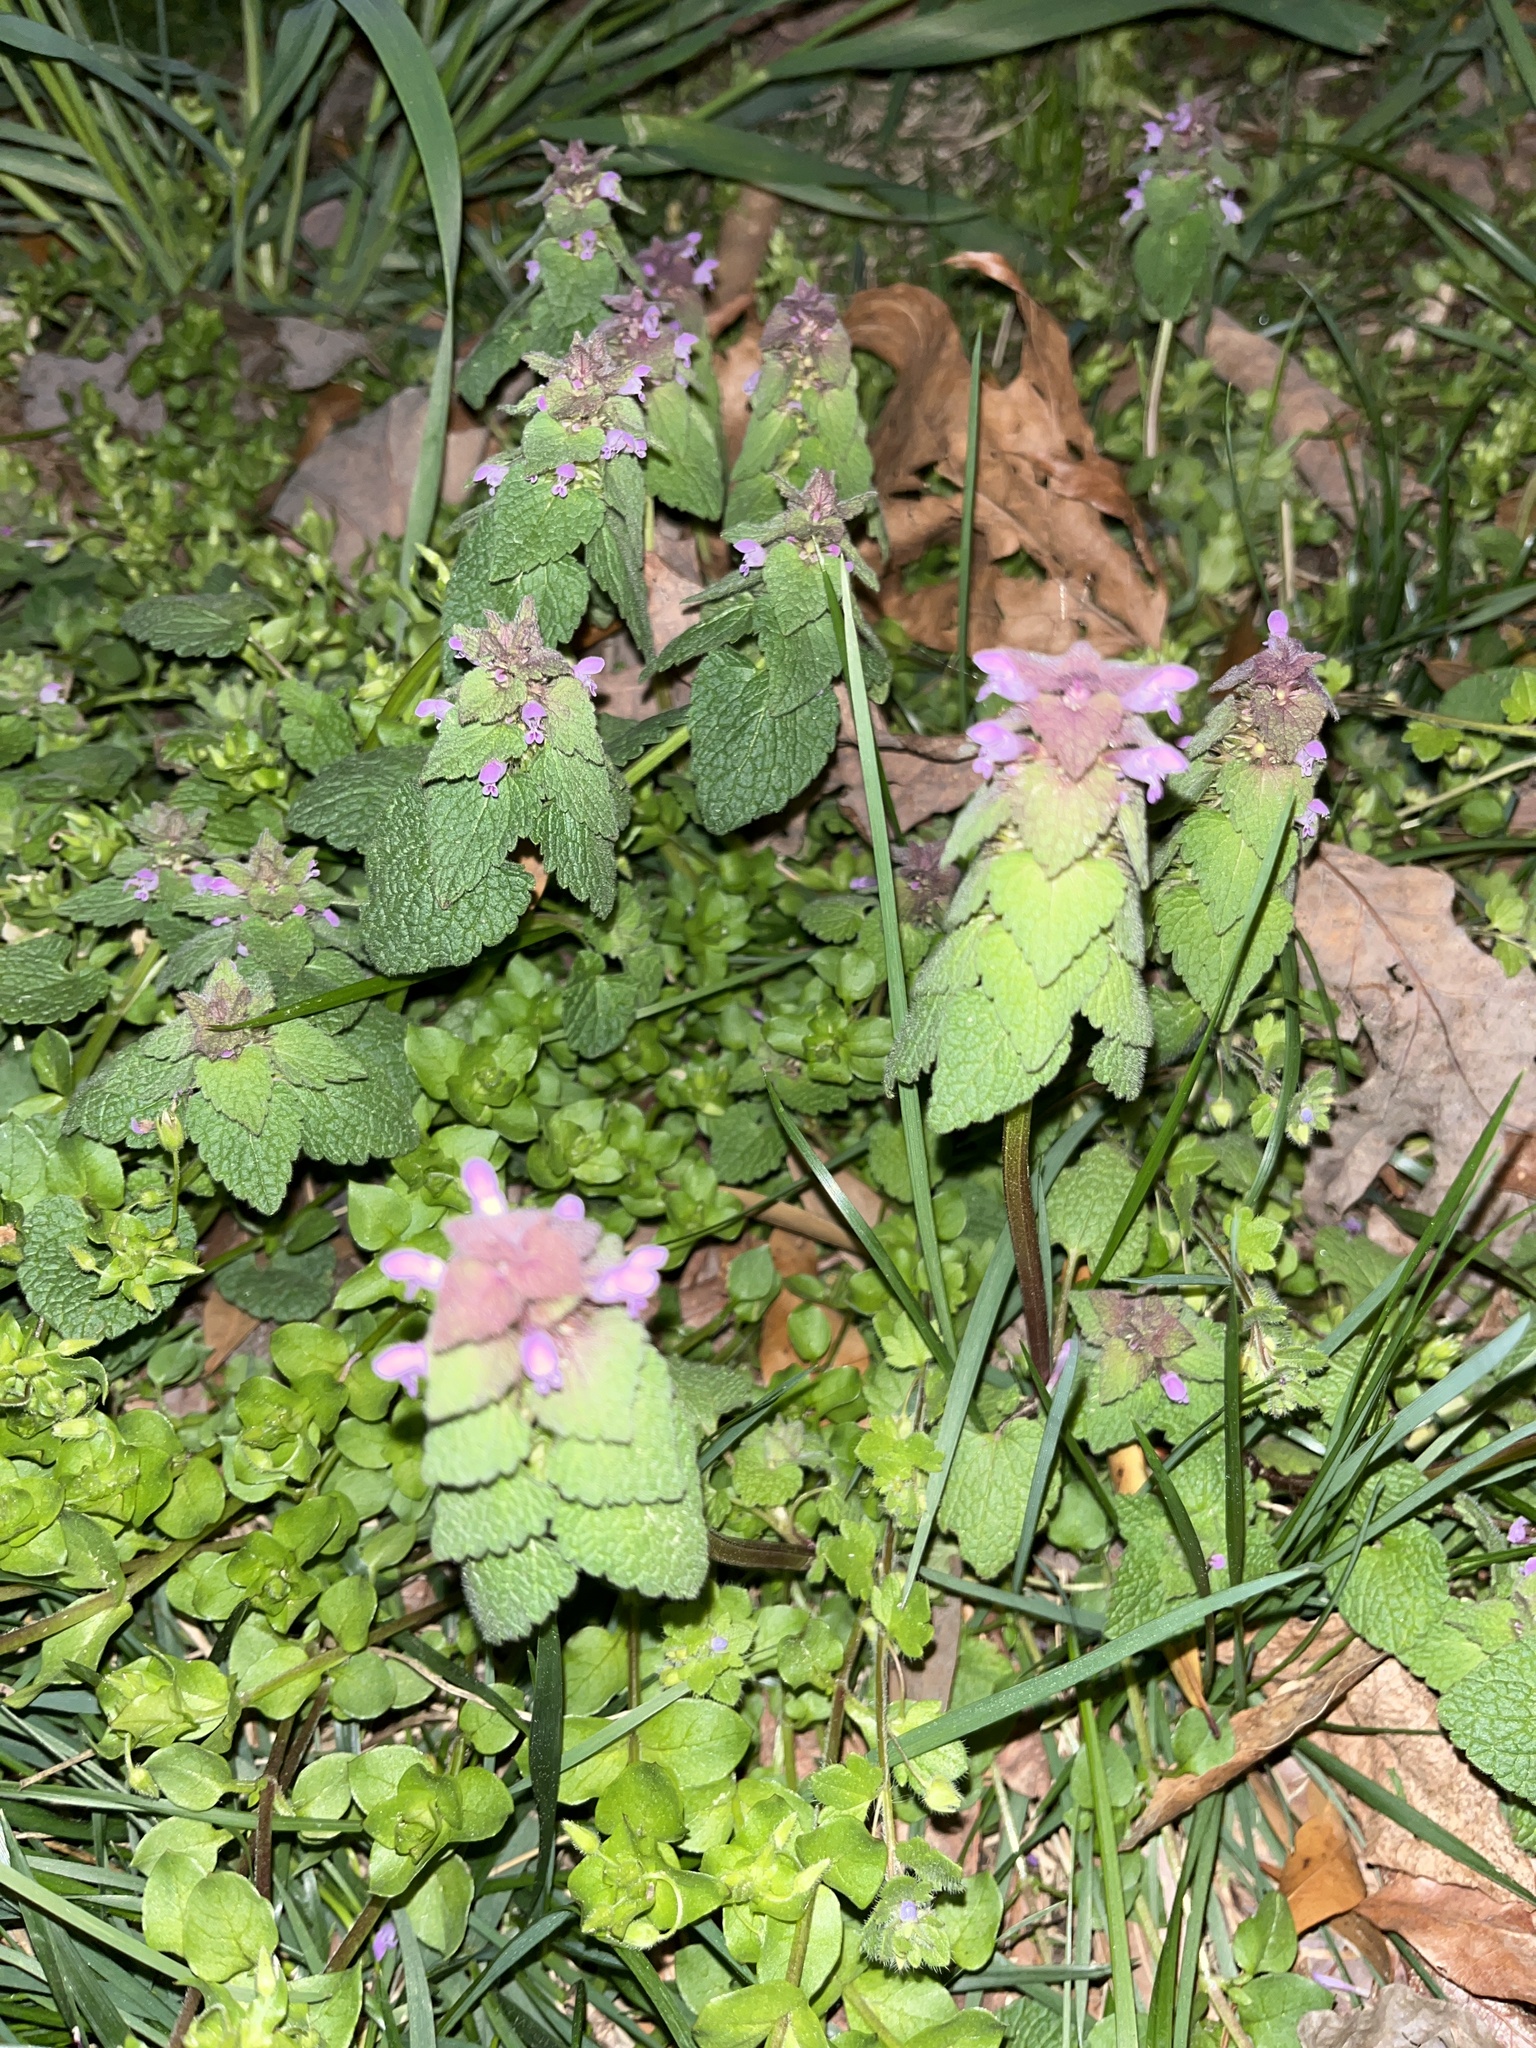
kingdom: Plantae
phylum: Tracheophyta
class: Magnoliopsida
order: Lamiales
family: Lamiaceae
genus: Lamium
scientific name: Lamium purpureum
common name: Red dead-nettle
